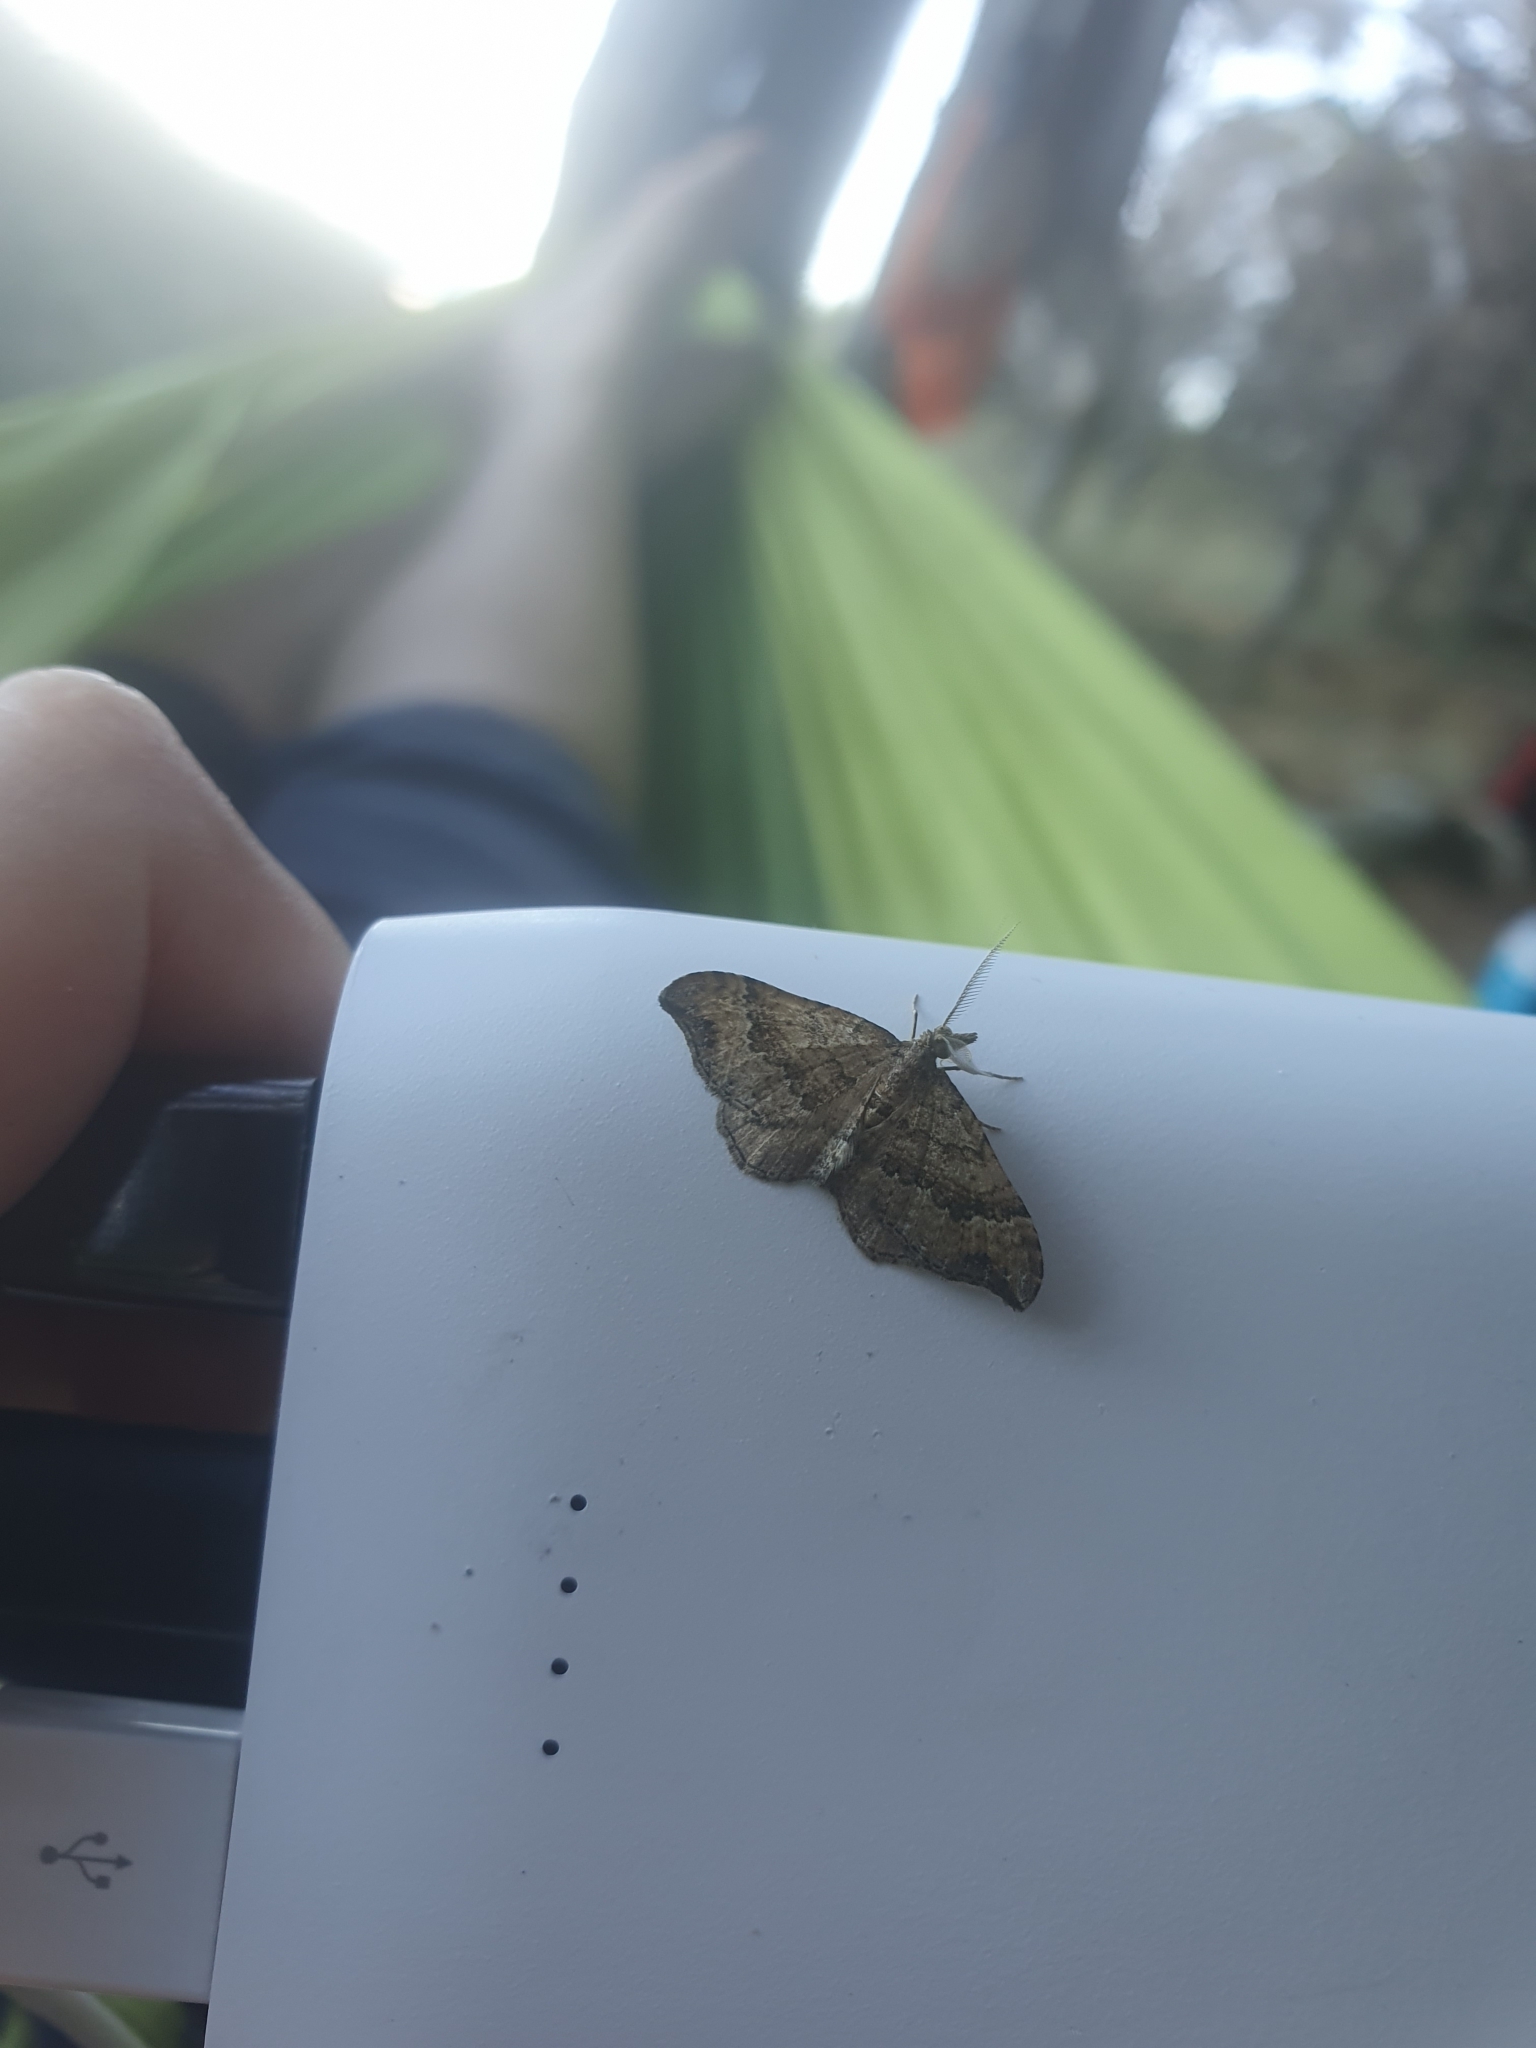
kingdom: Animalia
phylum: Arthropoda
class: Insecta
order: Lepidoptera
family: Geometridae
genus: Homodotis
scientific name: Homodotis megaspilata
